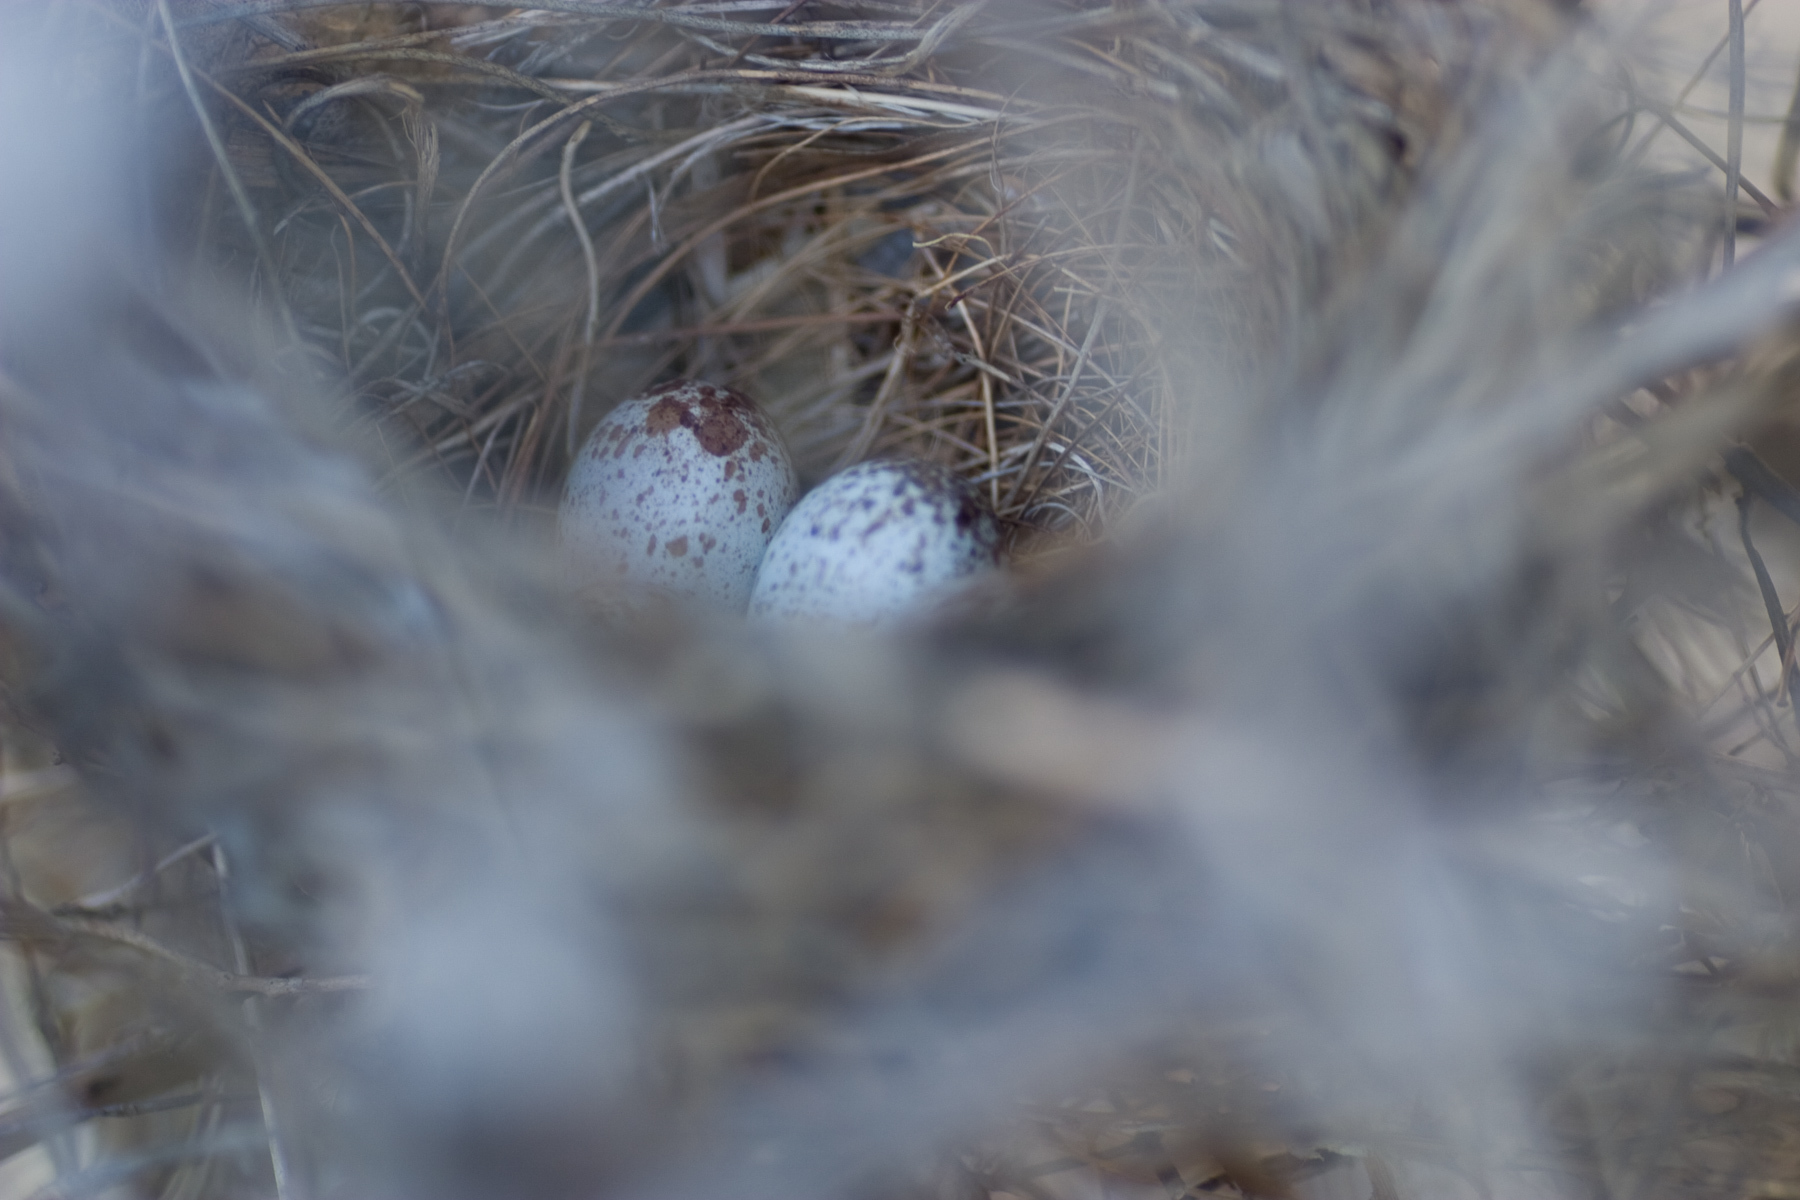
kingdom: Animalia
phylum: Chordata
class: Aves
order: Passeriformes
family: Cardinalidae
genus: Cardinalis
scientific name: Cardinalis cardinalis
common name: Northern cardinal
